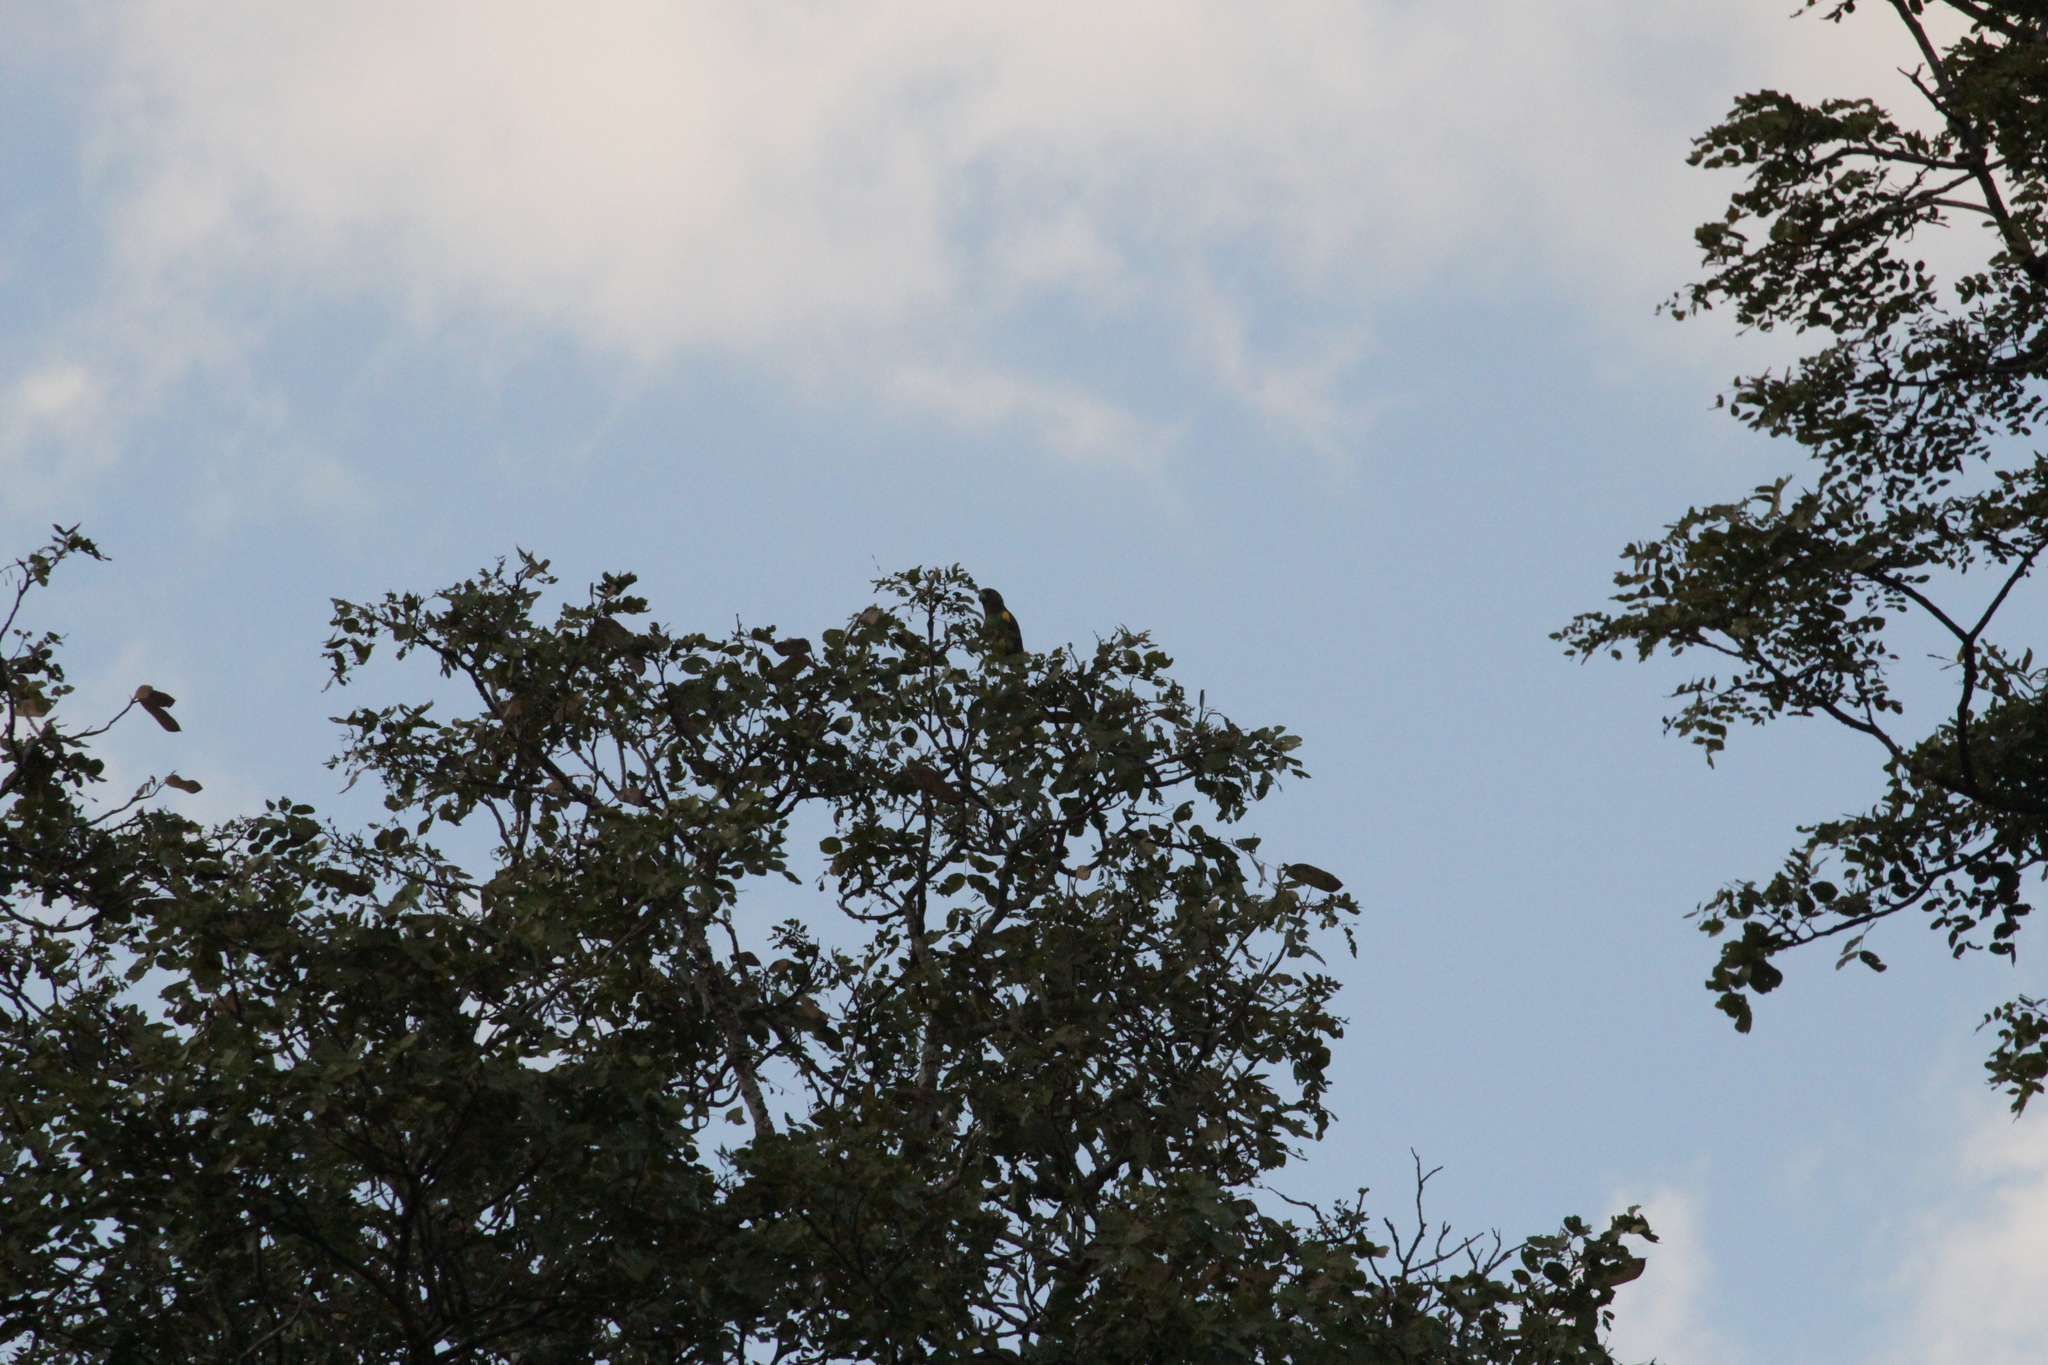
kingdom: Animalia
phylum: Chordata
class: Aves
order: Psittaciformes
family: Psittacidae
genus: Poicephalus
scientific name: Poicephalus meyeri
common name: Meyer's parrot
